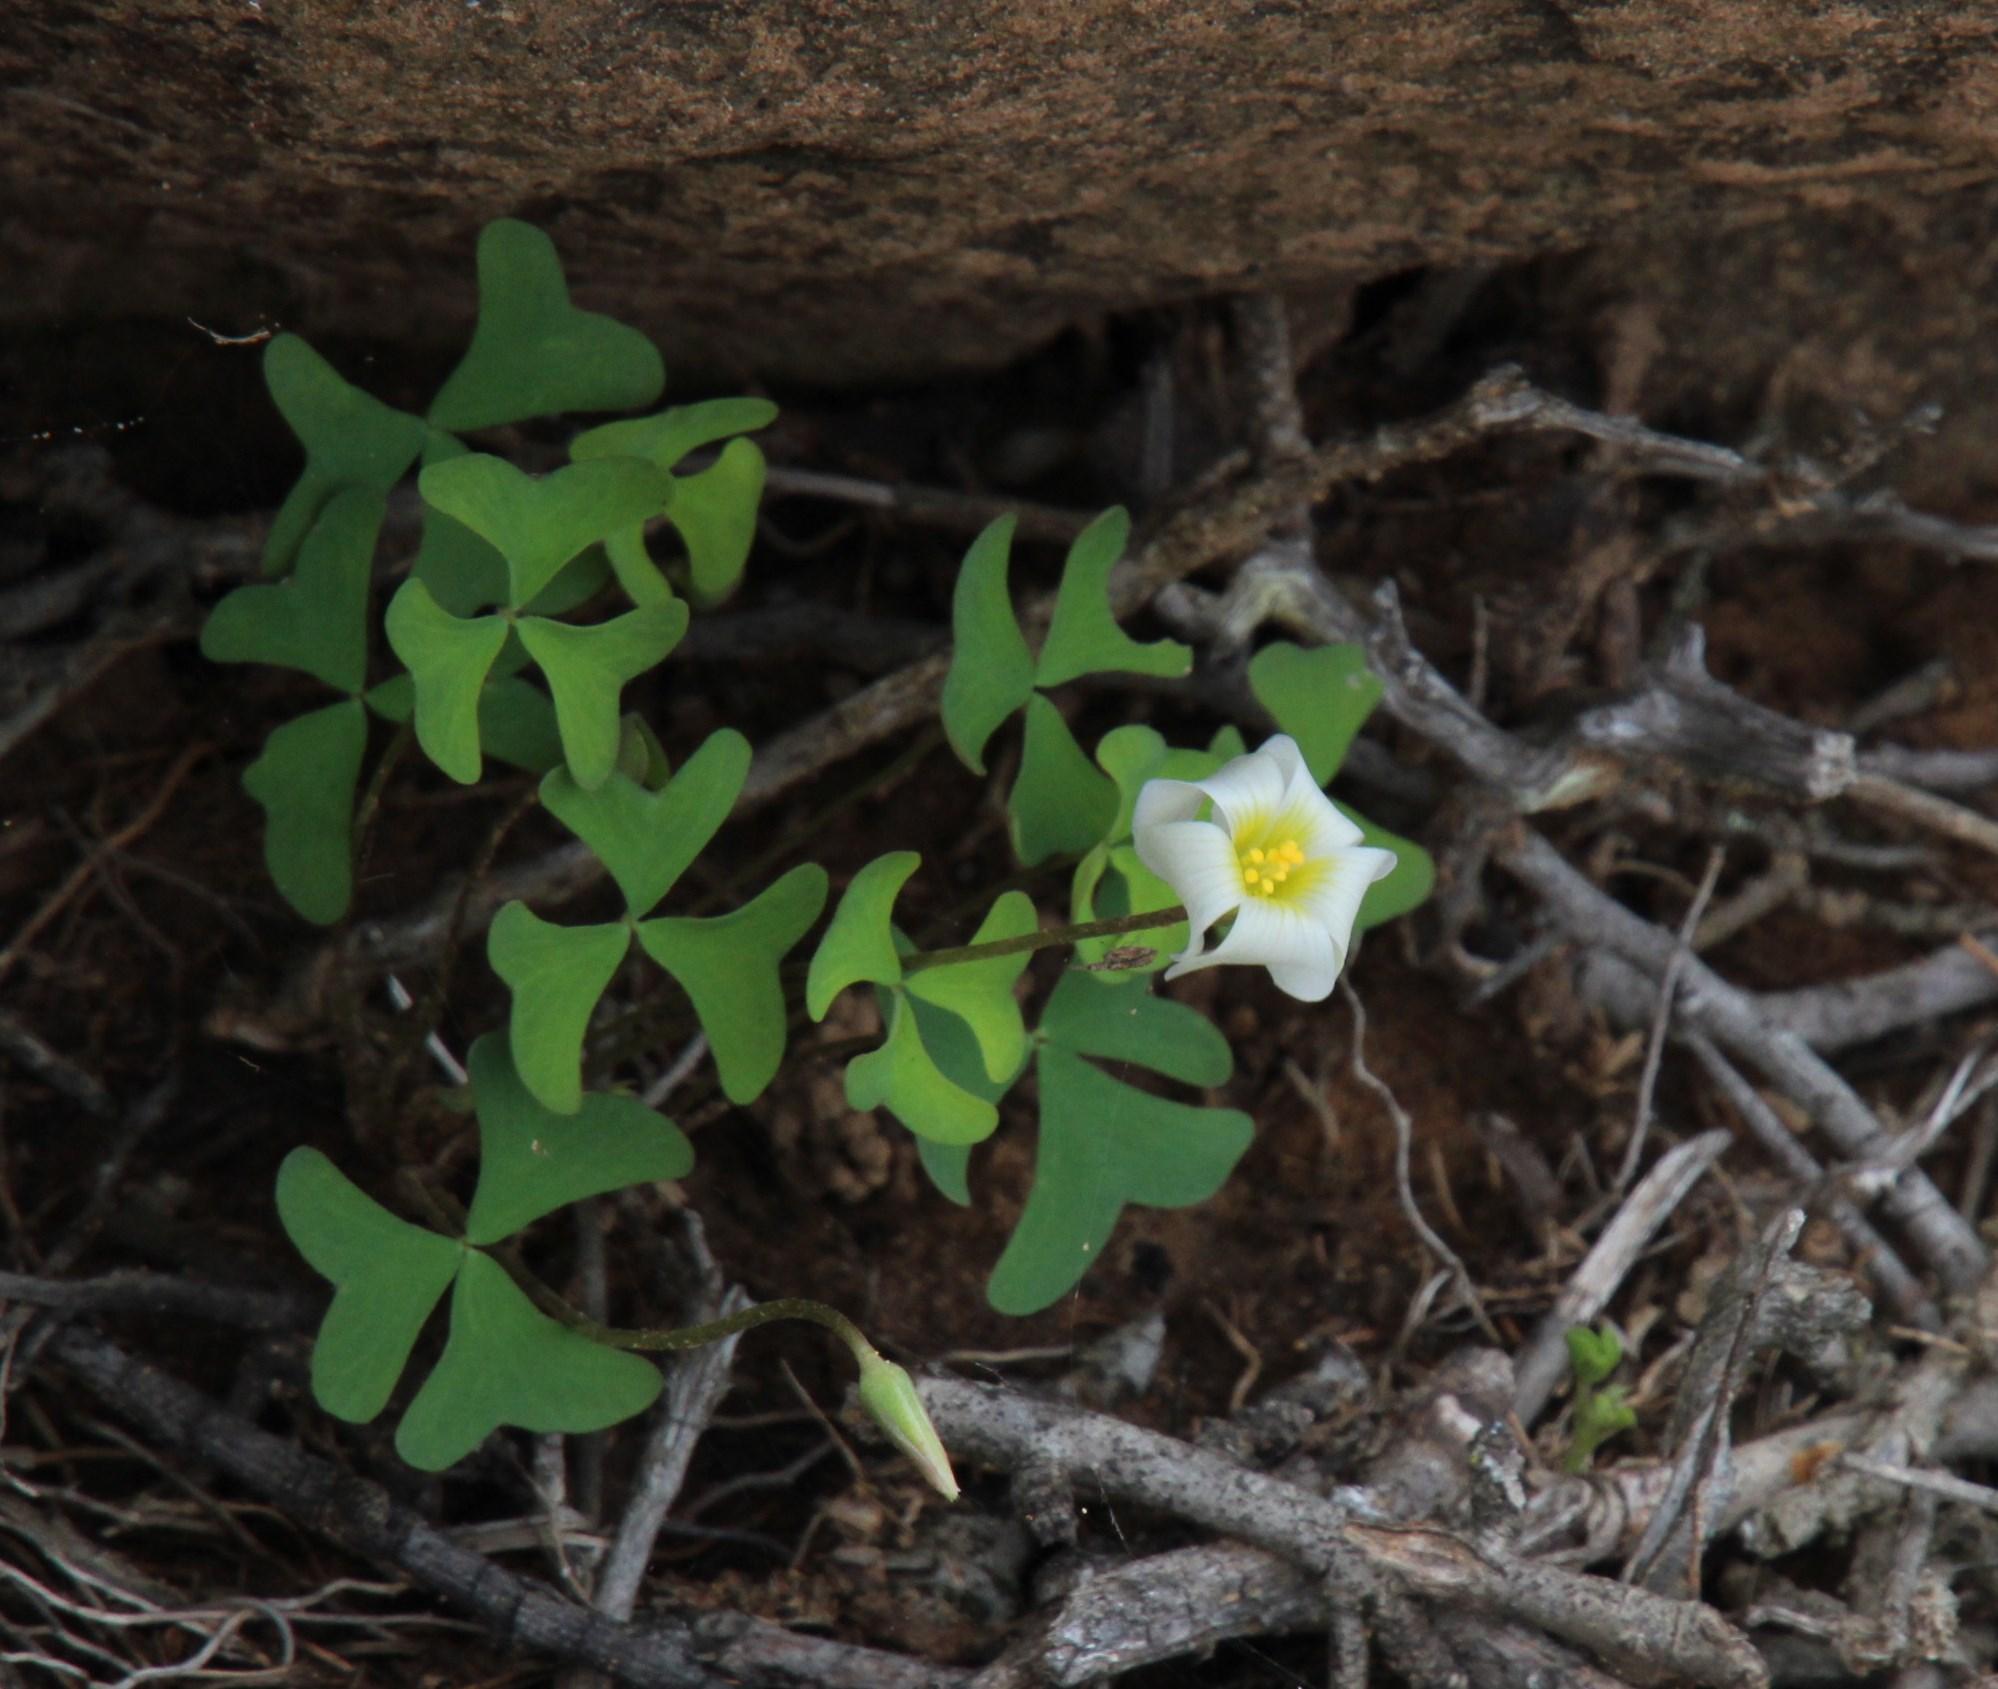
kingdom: Plantae
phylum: Tracheophyta
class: Magnoliopsida
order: Oxalidales
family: Oxalidaceae
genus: Oxalis
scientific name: Oxalis obliquifolia
